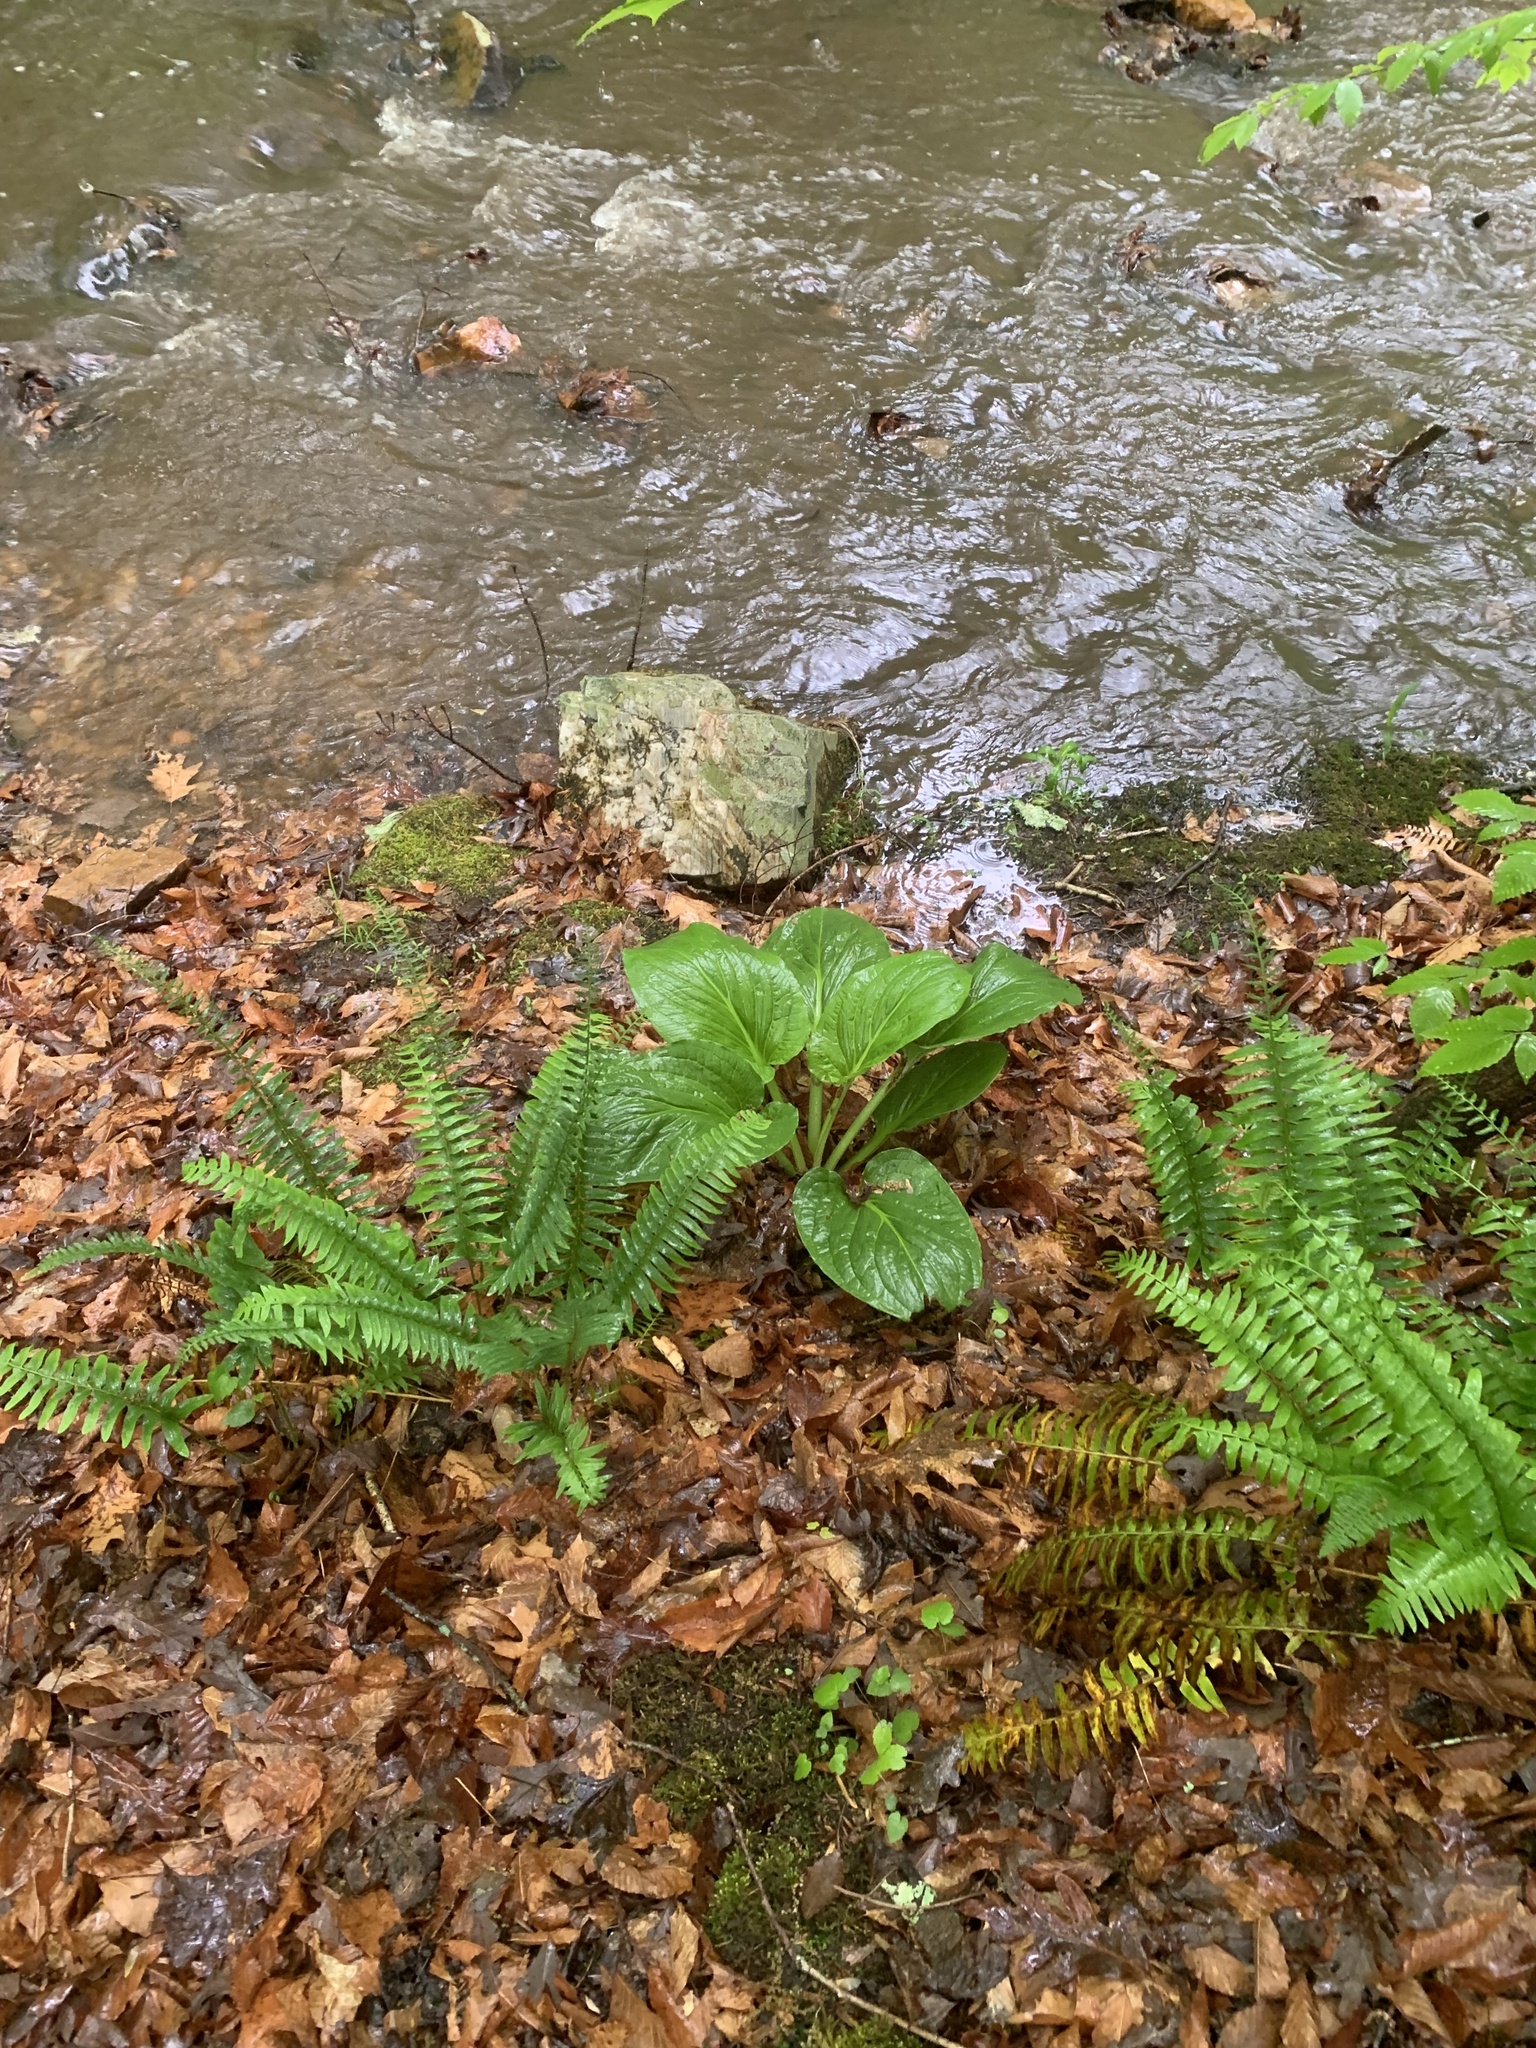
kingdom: Plantae
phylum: Tracheophyta
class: Liliopsida
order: Alismatales
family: Araceae
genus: Symplocarpus
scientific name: Symplocarpus foetidus
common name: Eastern skunk cabbage
